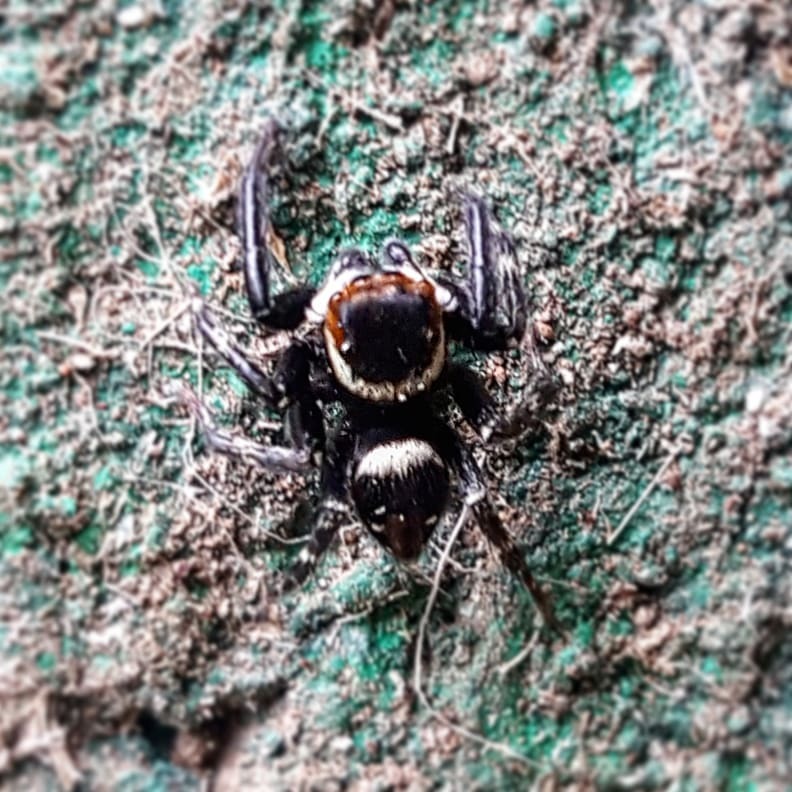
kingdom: Animalia
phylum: Arthropoda
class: Arachnida
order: Araneae
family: Salticidae
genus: Hasarius
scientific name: Hasarius adansoni
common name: Jumping spider
